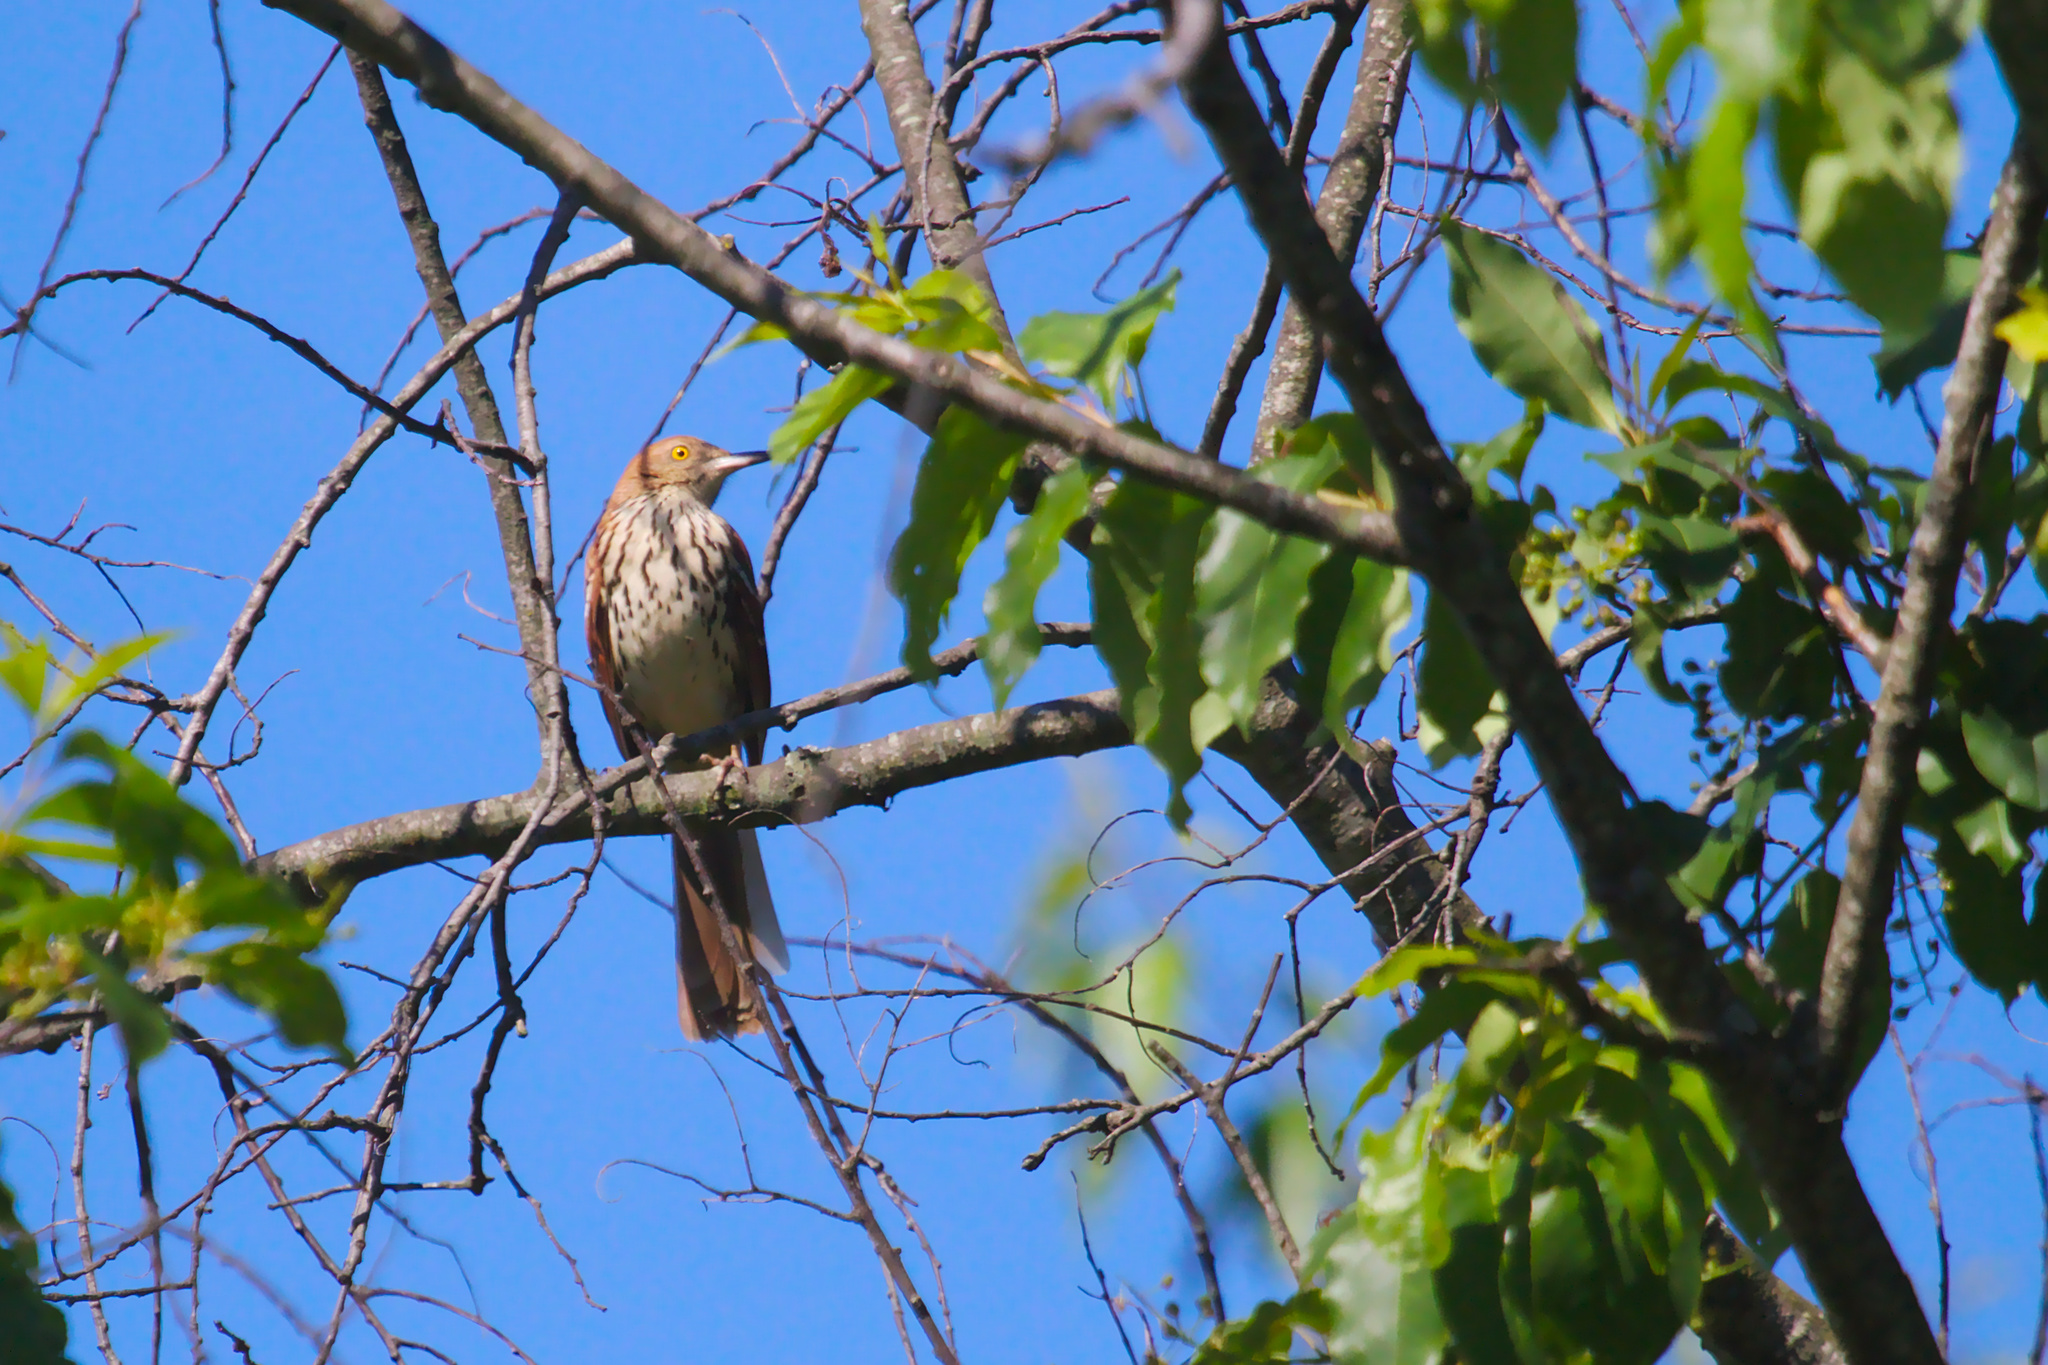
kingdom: Animalia
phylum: Chordata
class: Aves
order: Passeriformes
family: Mimidae
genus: Toxostoma
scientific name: Toxostoma rufum
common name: Brown thrasher
